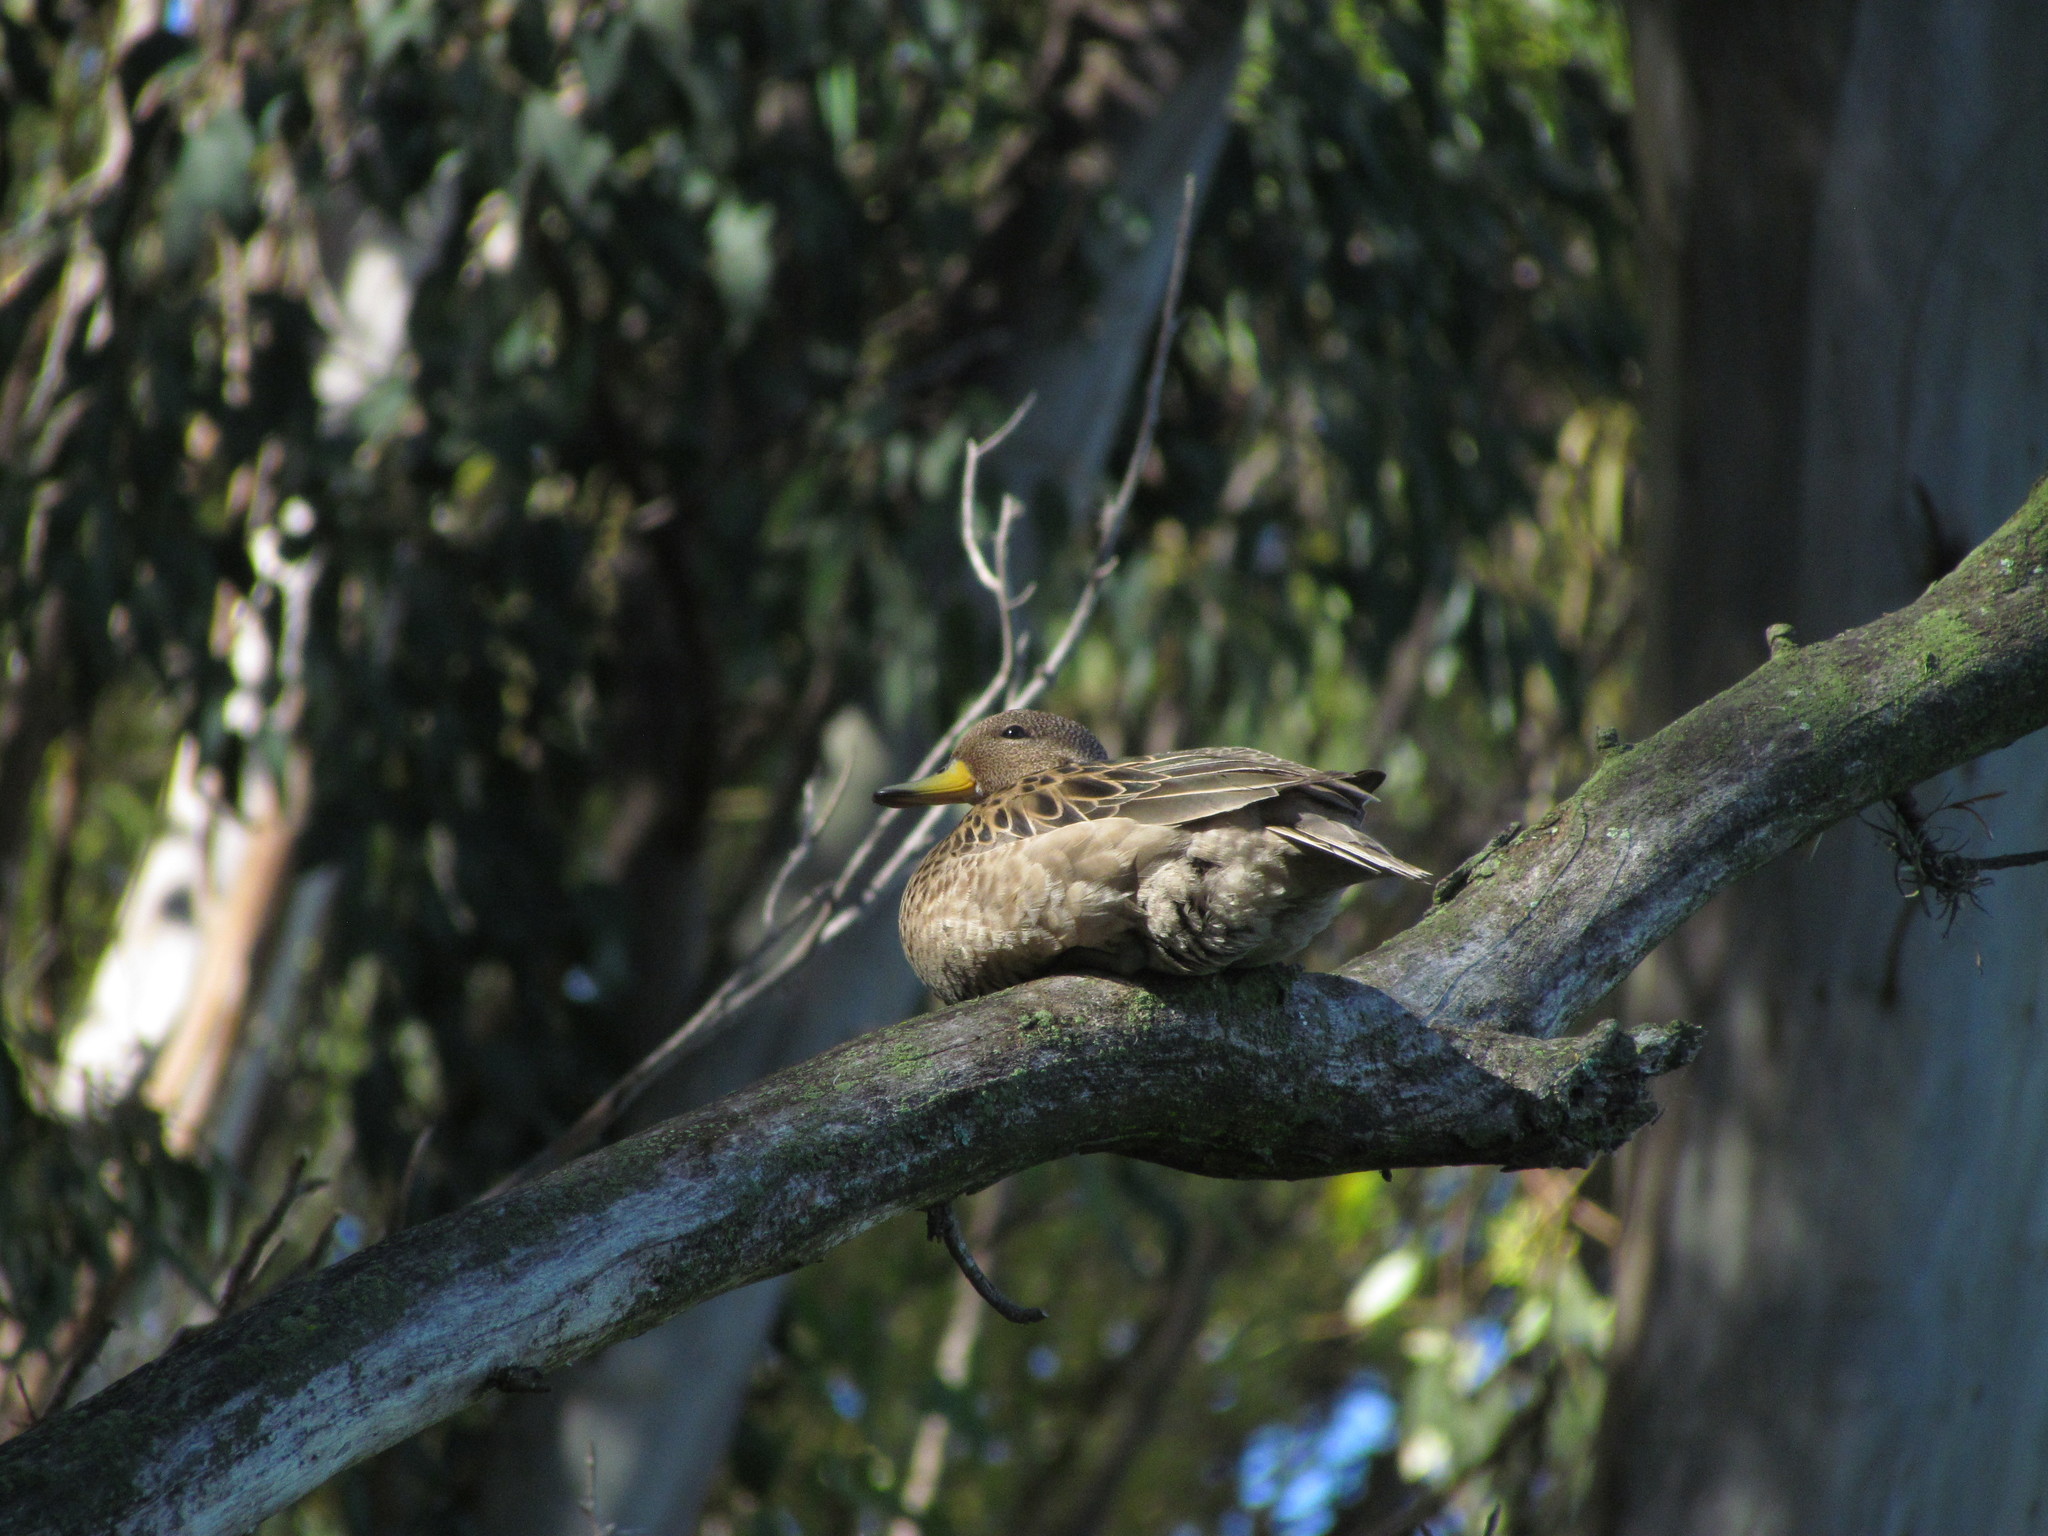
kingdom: Animalia
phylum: Chordata
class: Aves
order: Anseriformes
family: Anatidae
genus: Anas
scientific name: Anas flavirostris
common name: Yellow-billed teal
